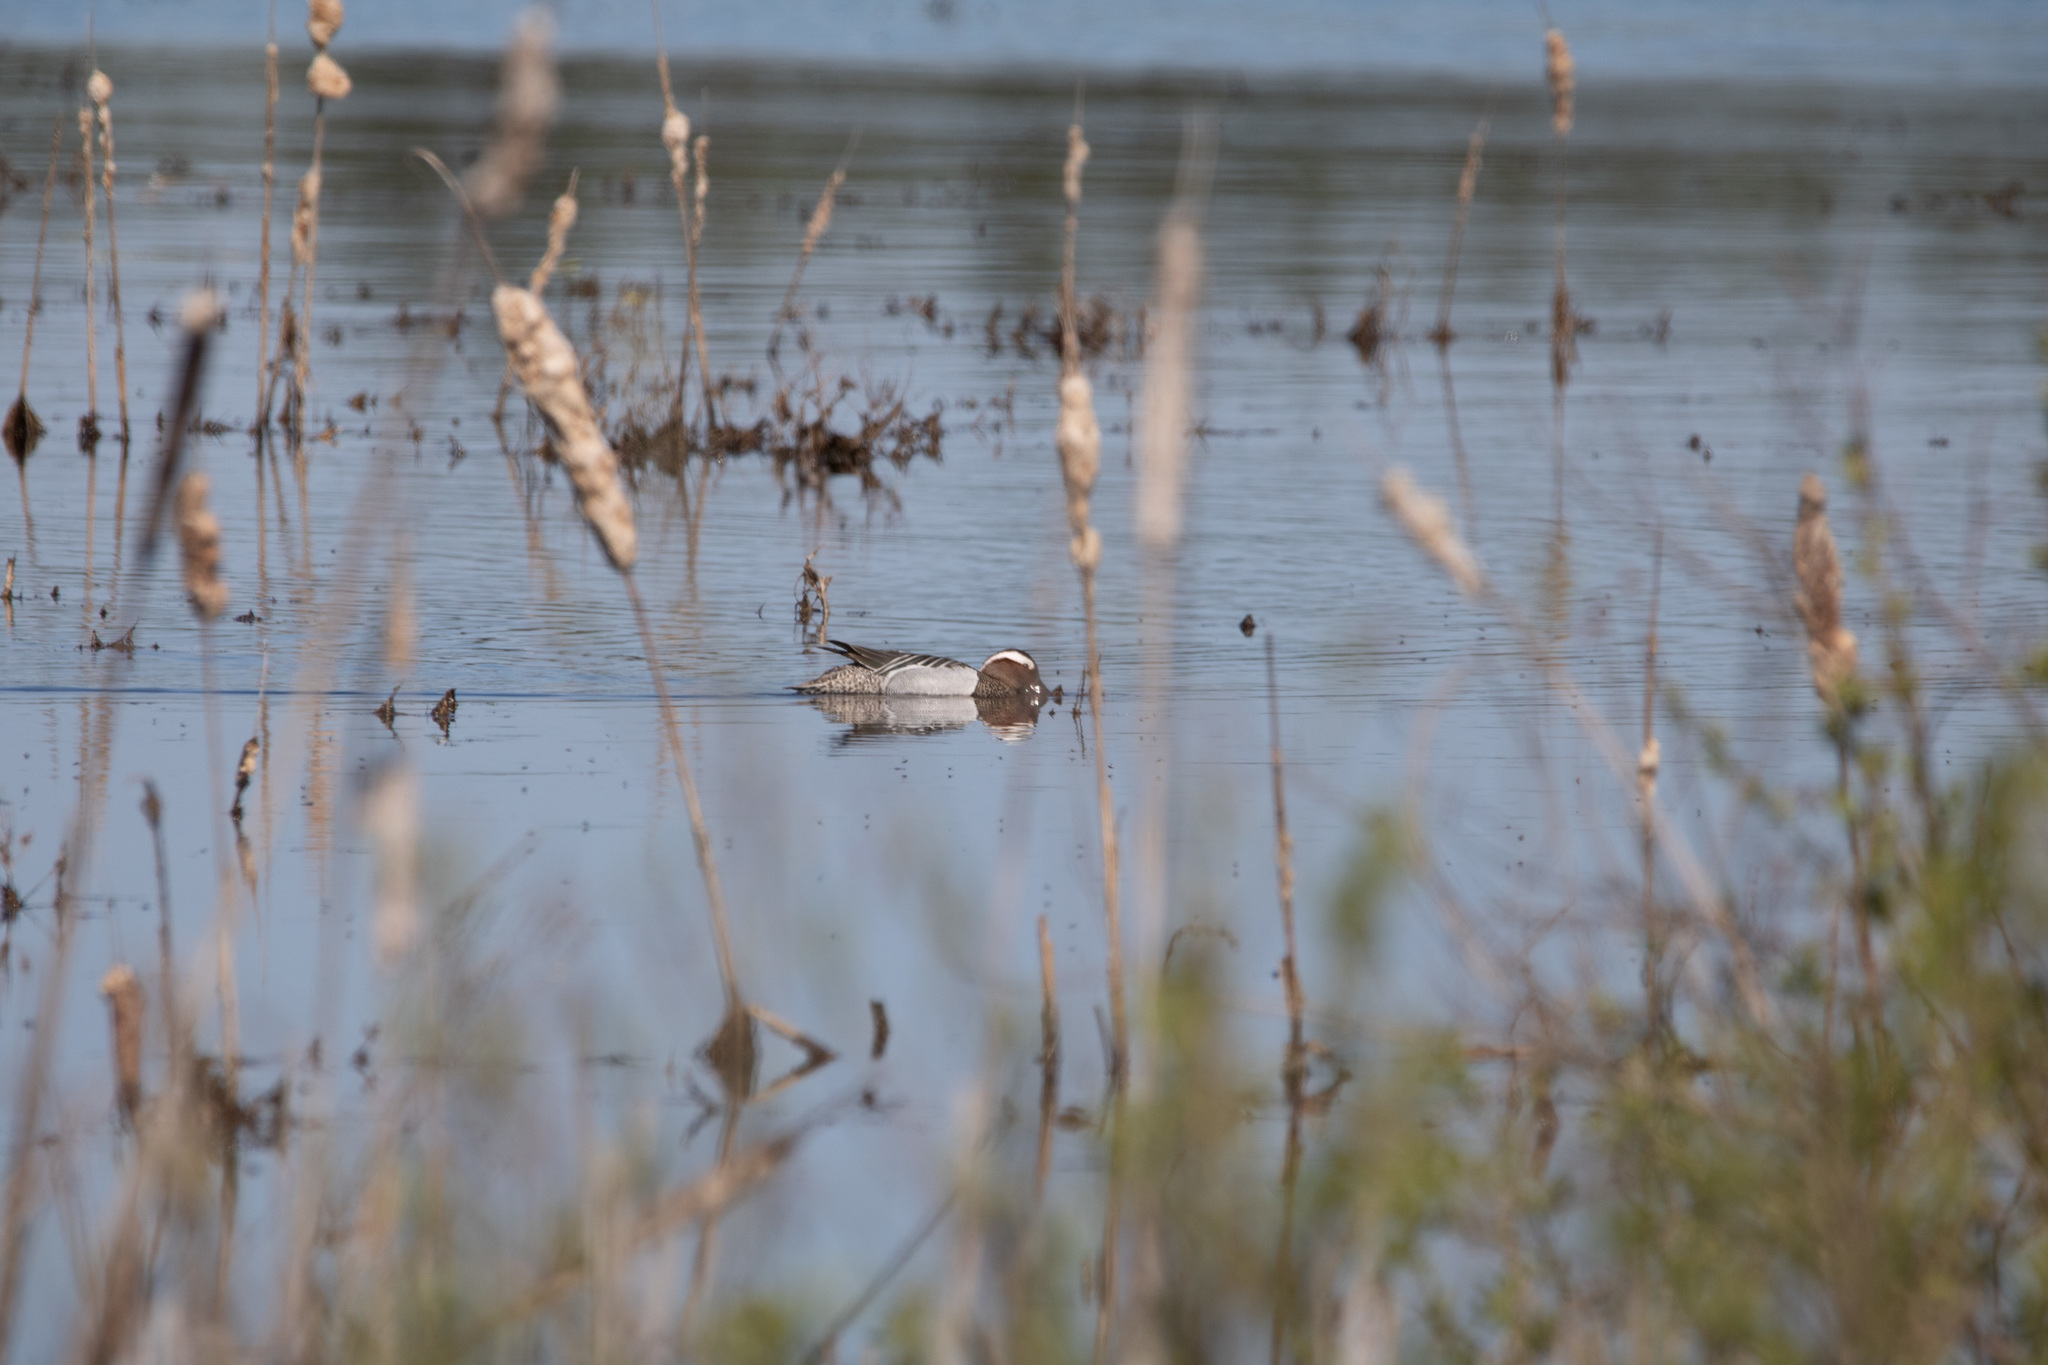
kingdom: Animalia
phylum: Chordata
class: Aves
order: Anseriformes
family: Anatidae
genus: Spatula
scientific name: Spatula querquedula
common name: Garganey
